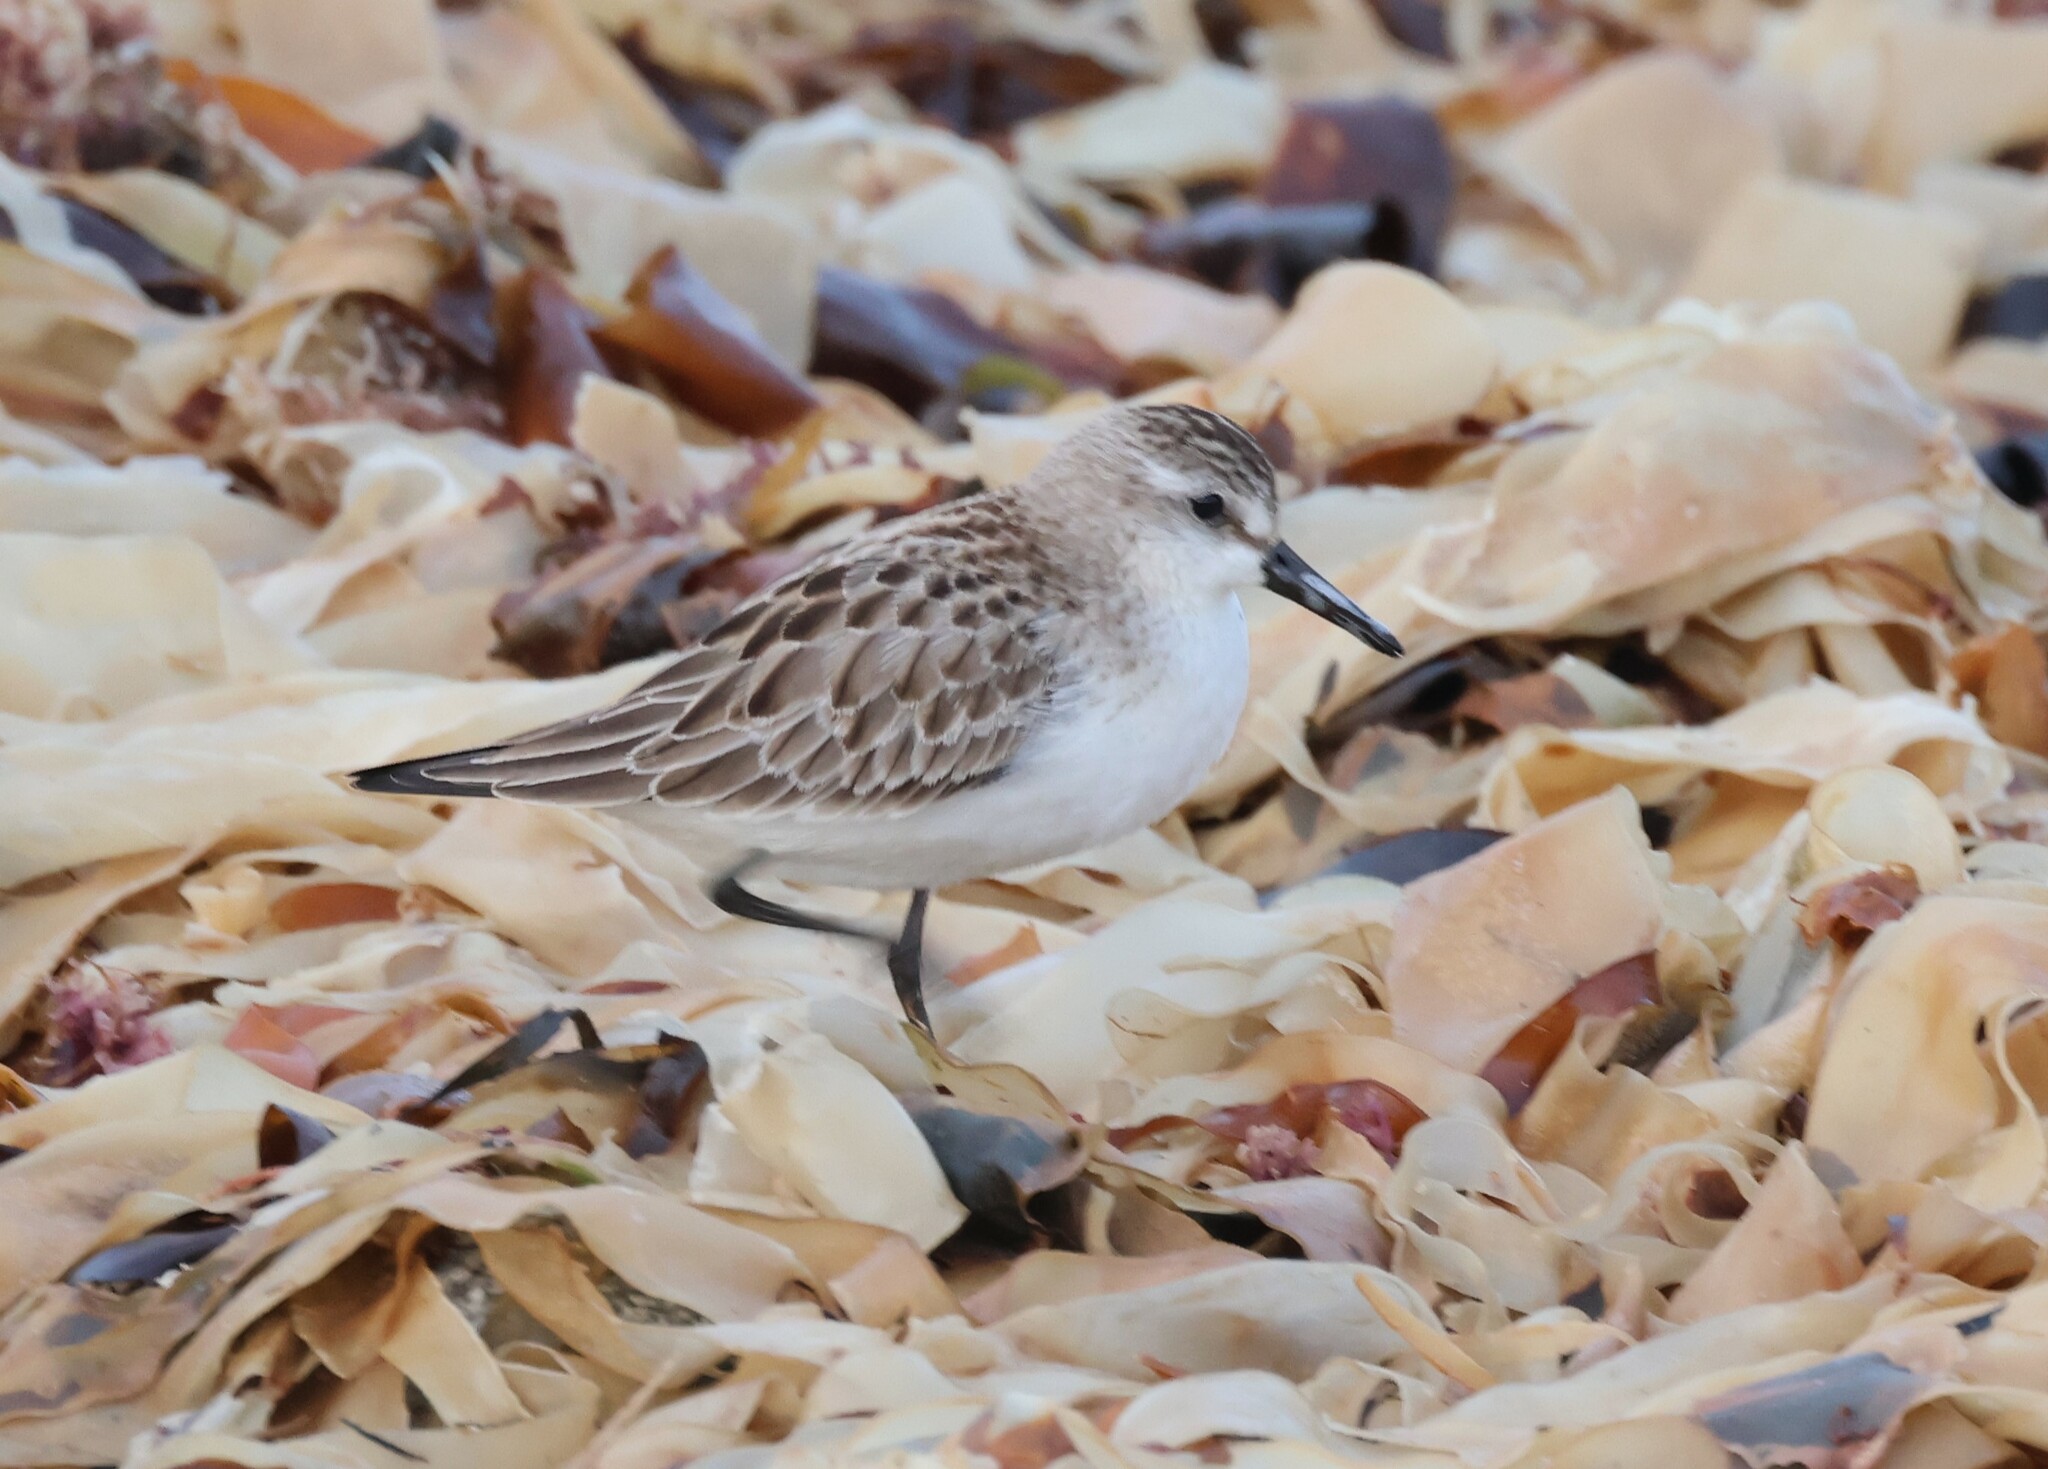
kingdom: Animalia
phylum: Chordata
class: Aves
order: Charadriiformes
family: Scolopacidae
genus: Calidris
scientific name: Calidris pusilla
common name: Semipalmated sandpiper
